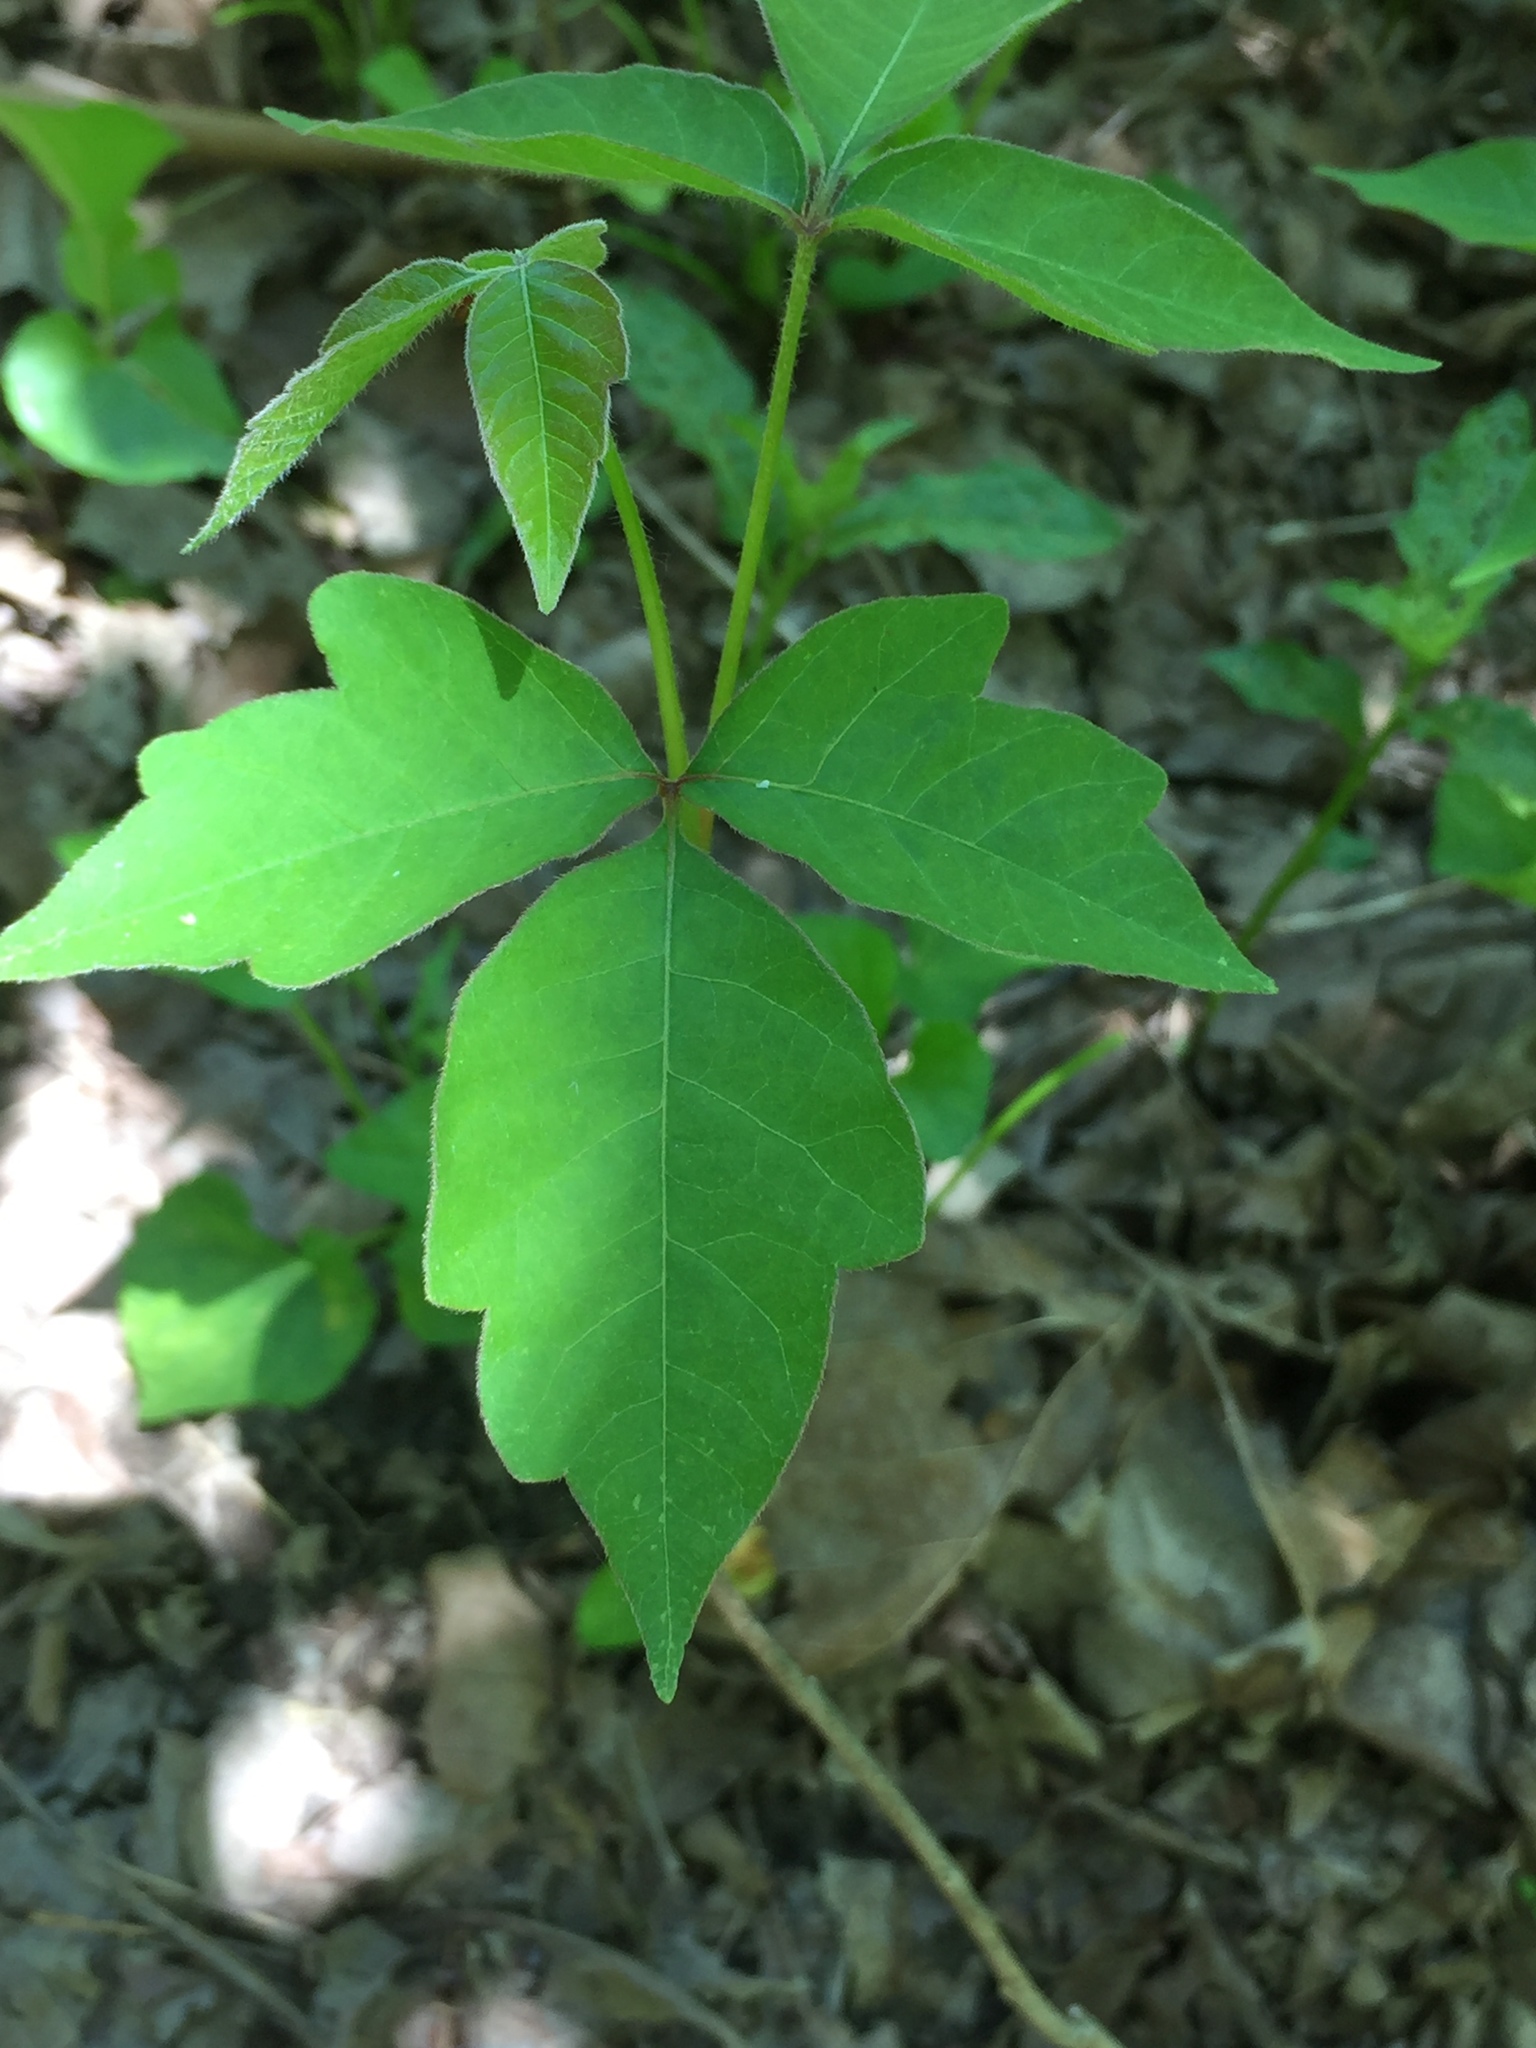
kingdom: Plantae
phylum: Tracheophyta
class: Magnoliopsida
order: Sapindales
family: Anacardiaceae
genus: Toxicodendron
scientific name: Toxicodendron radicans
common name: Poison ivy
